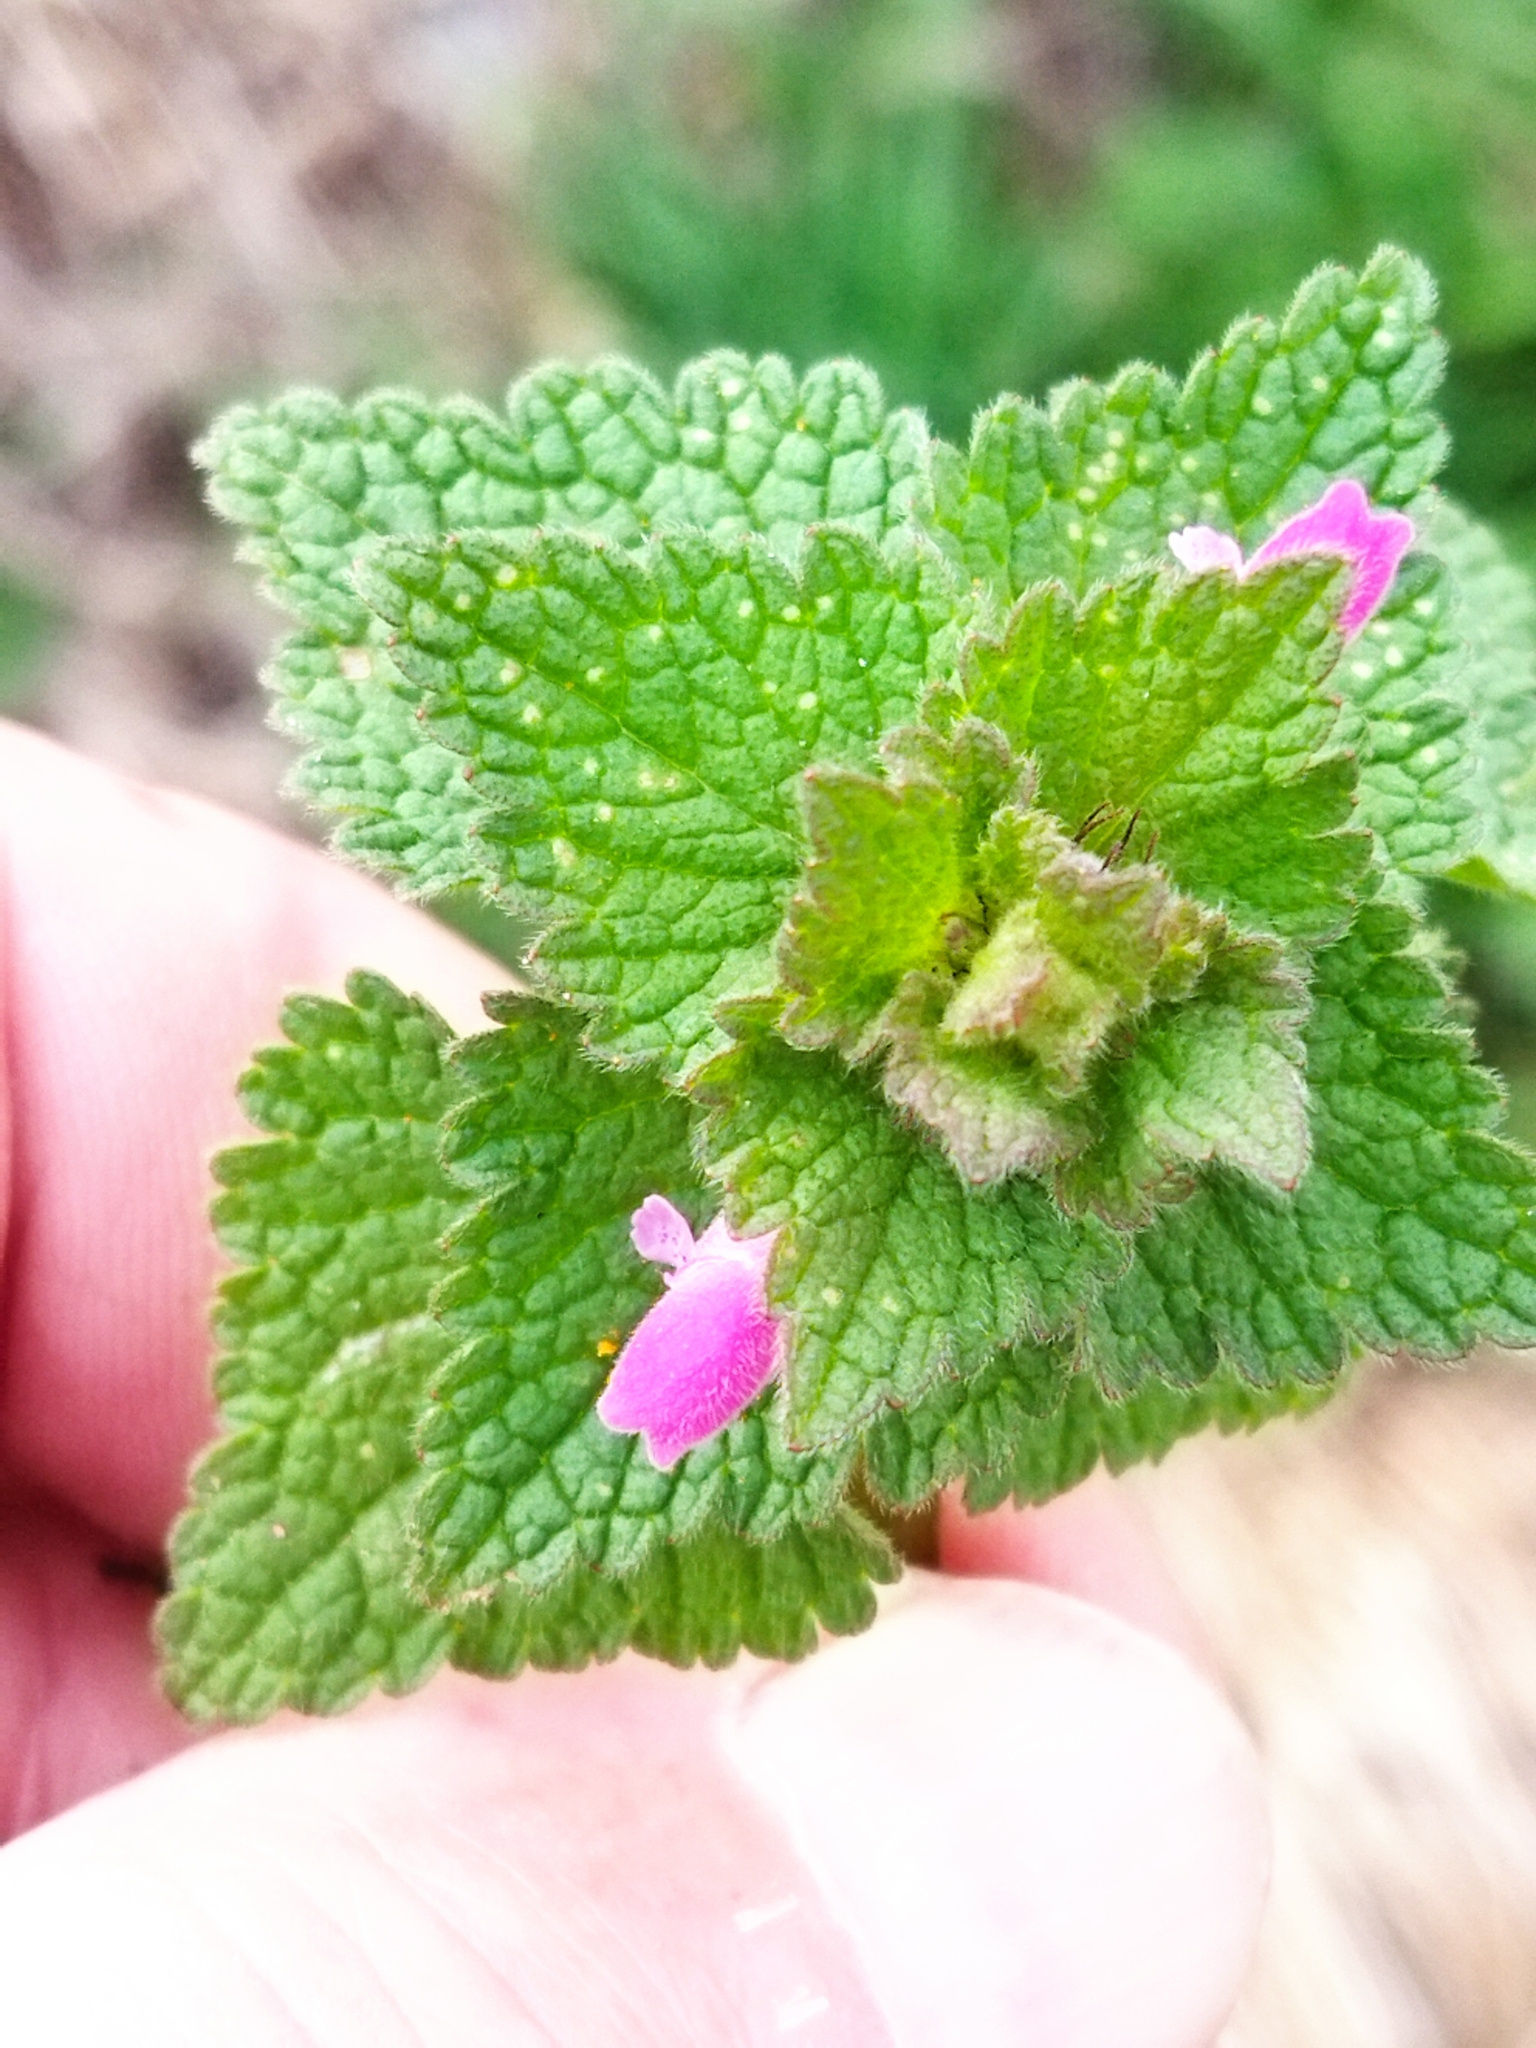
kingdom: Plantae
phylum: Tracheophyta
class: Magnoliopsida
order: Lamiales
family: Lamiaceae
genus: Lamium
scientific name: Lamium purpureum
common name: Red dead-nettle
